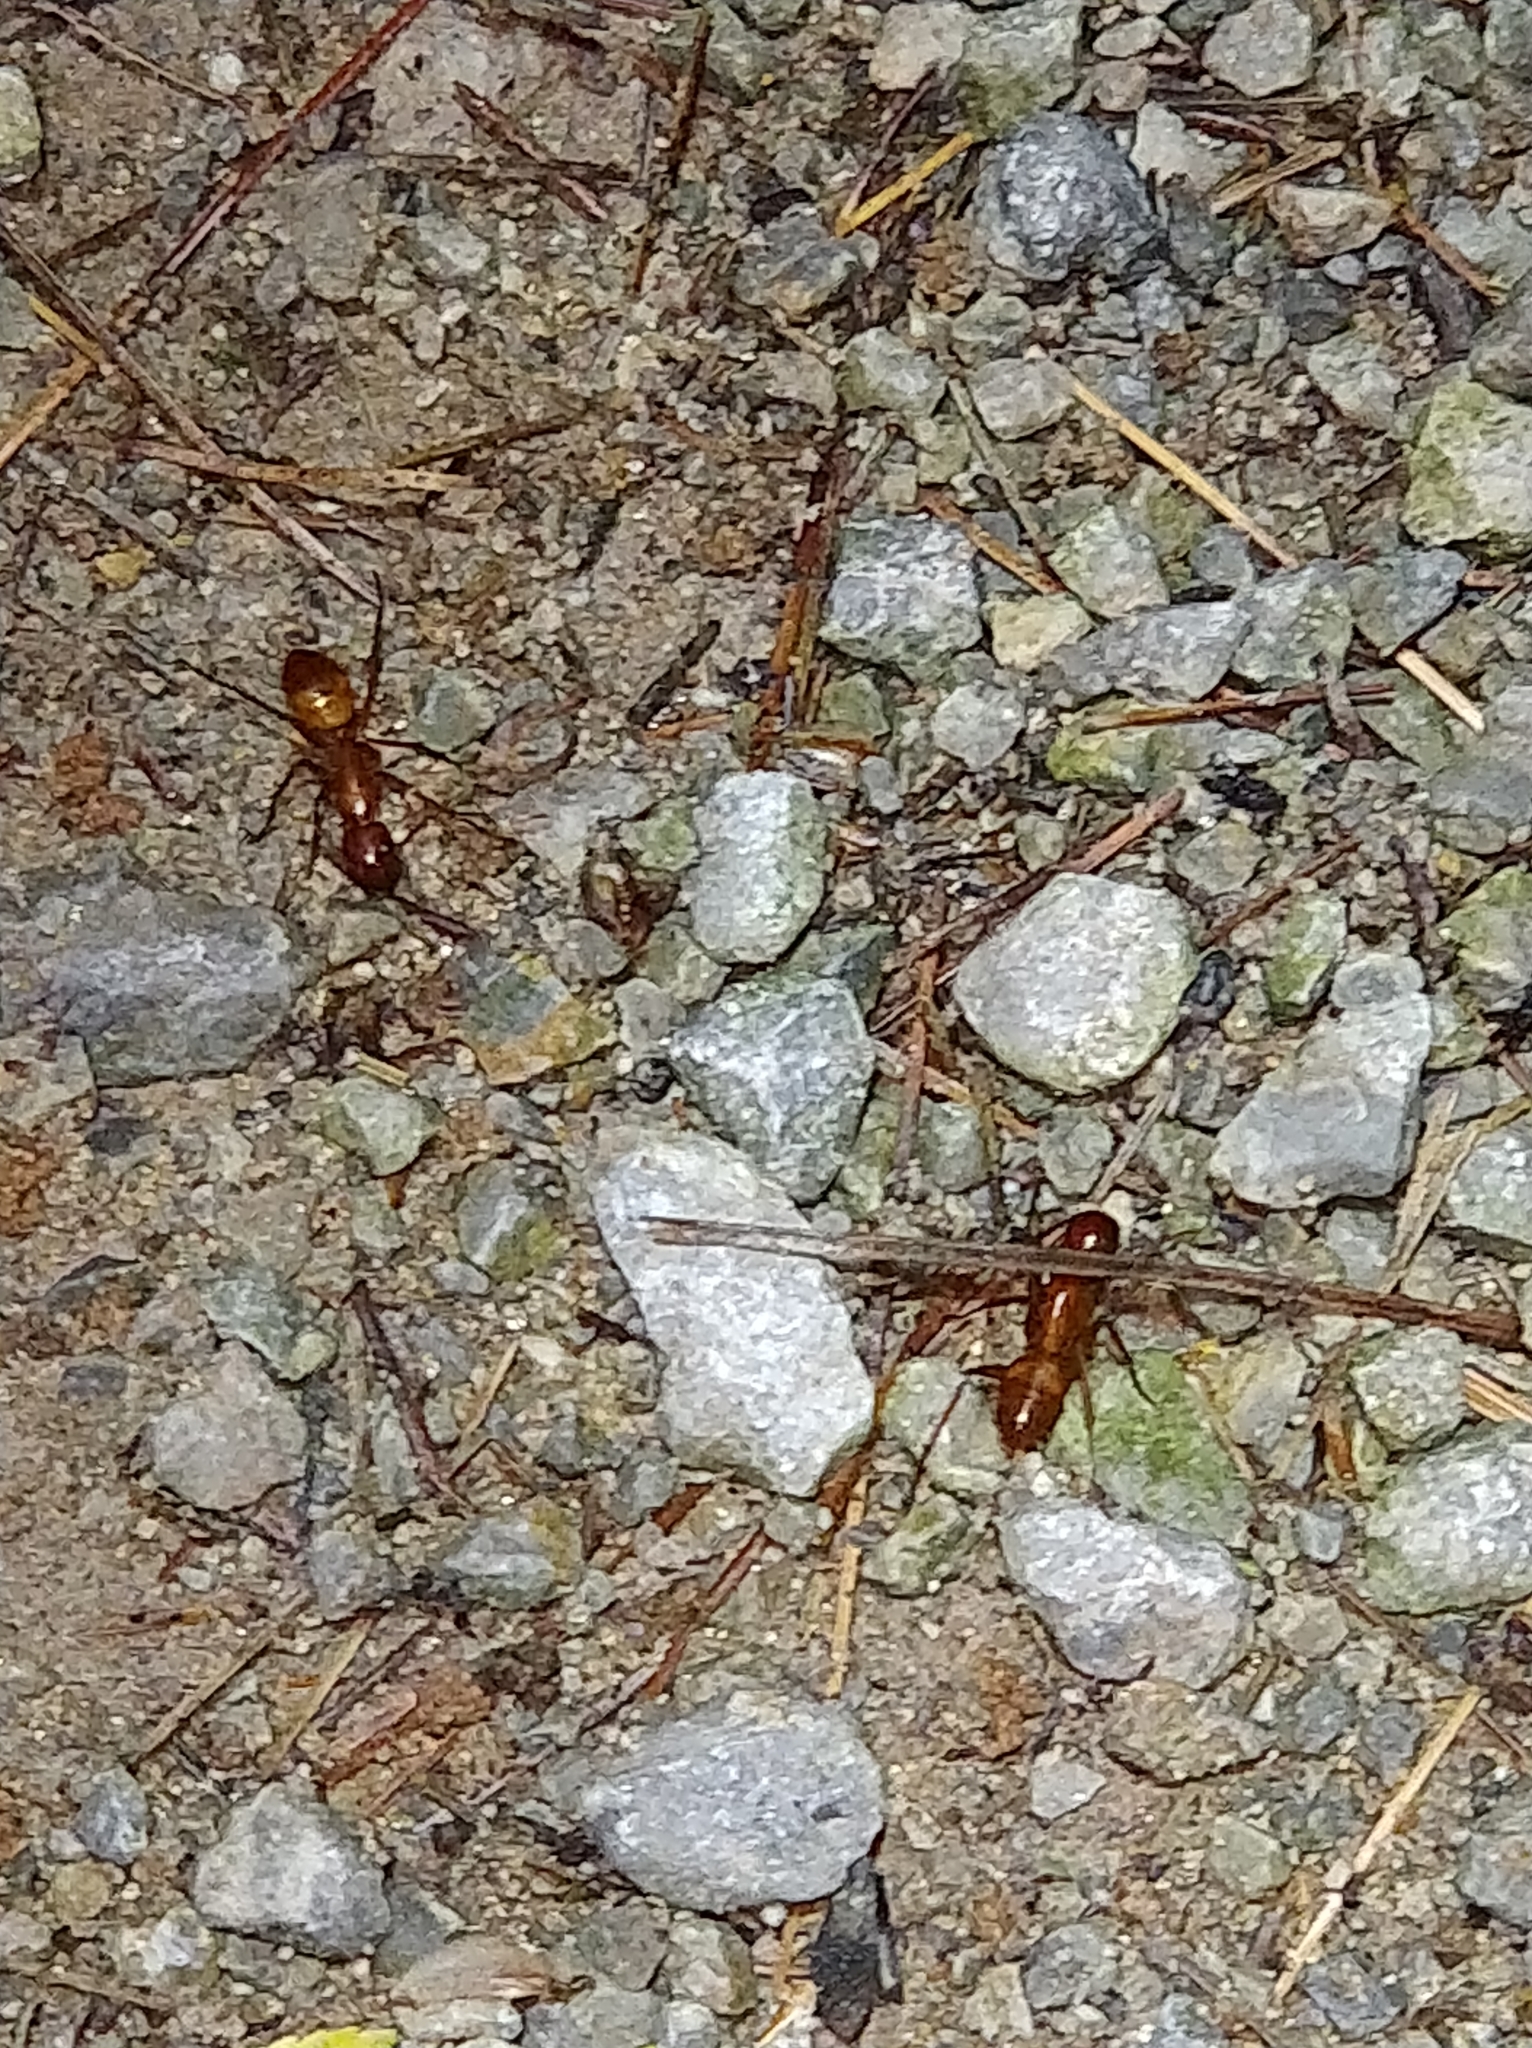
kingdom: Animalia
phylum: Arthropoda
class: Insecta
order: Hymenoptera
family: Formicidae
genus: Camponotus
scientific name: Camponotus castaneus
